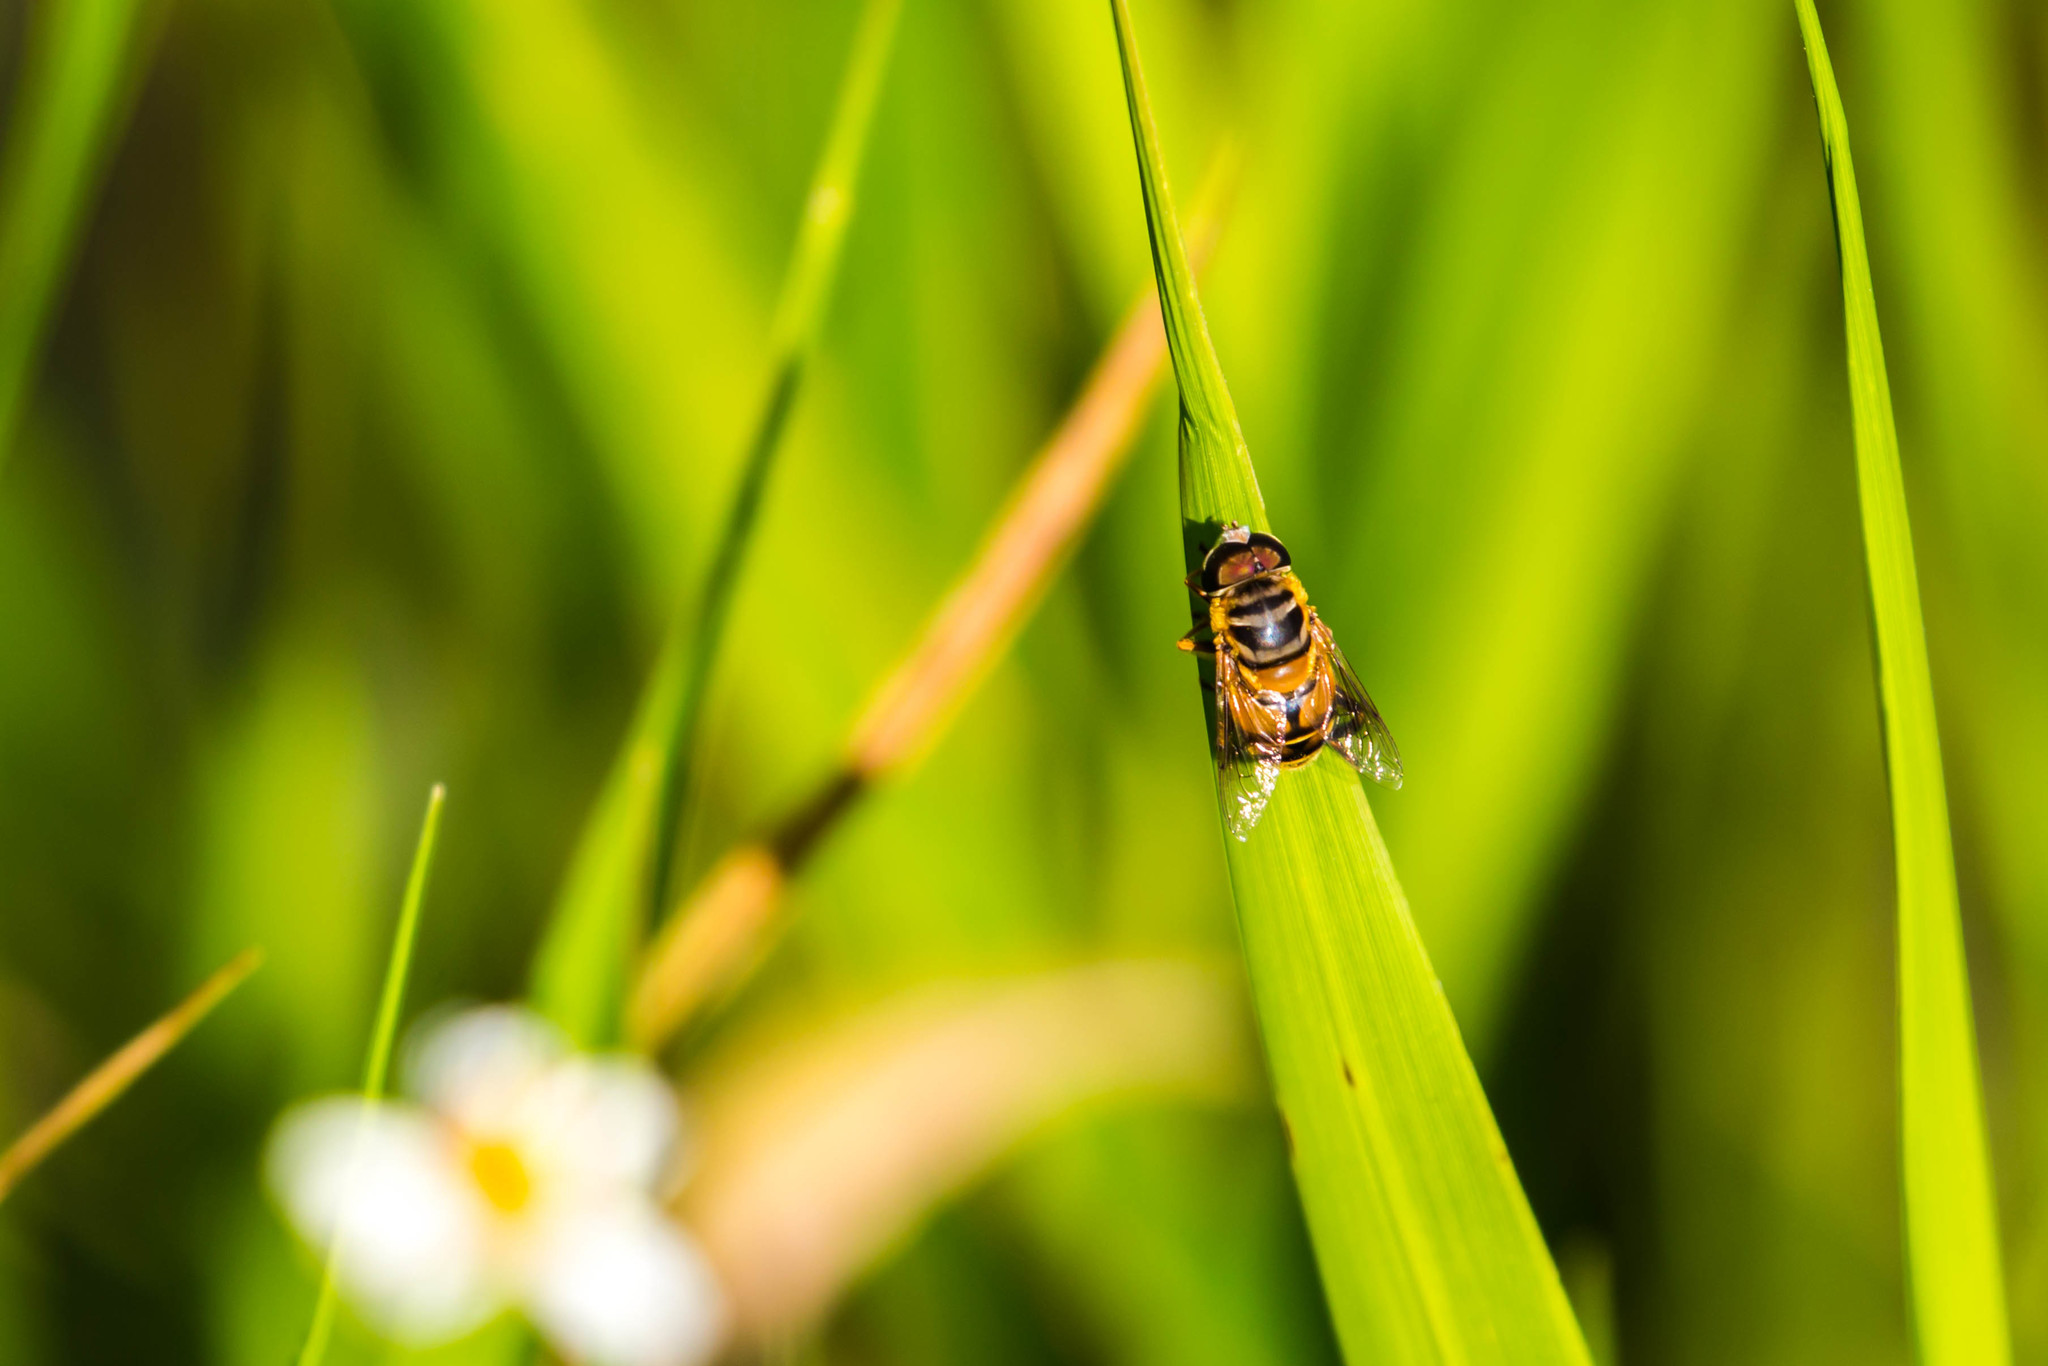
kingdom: Animalia
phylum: Arthropoda
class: Insecta
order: Diptera
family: Syrphidae
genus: Palpada
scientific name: Palpada vinetorum
